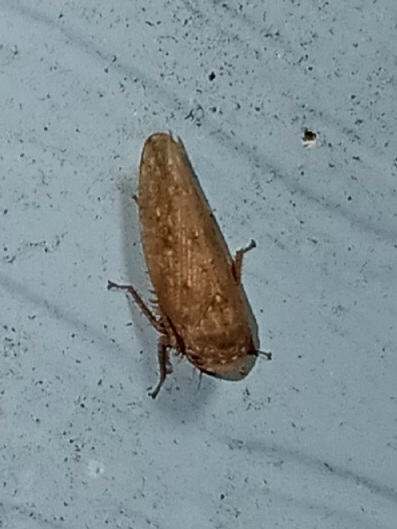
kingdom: Animalia
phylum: Arthropoda
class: Insecta
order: Hemiptera
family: Cicadellidae
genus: Paraphlepsius
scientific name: Paraphlepsius continuus
